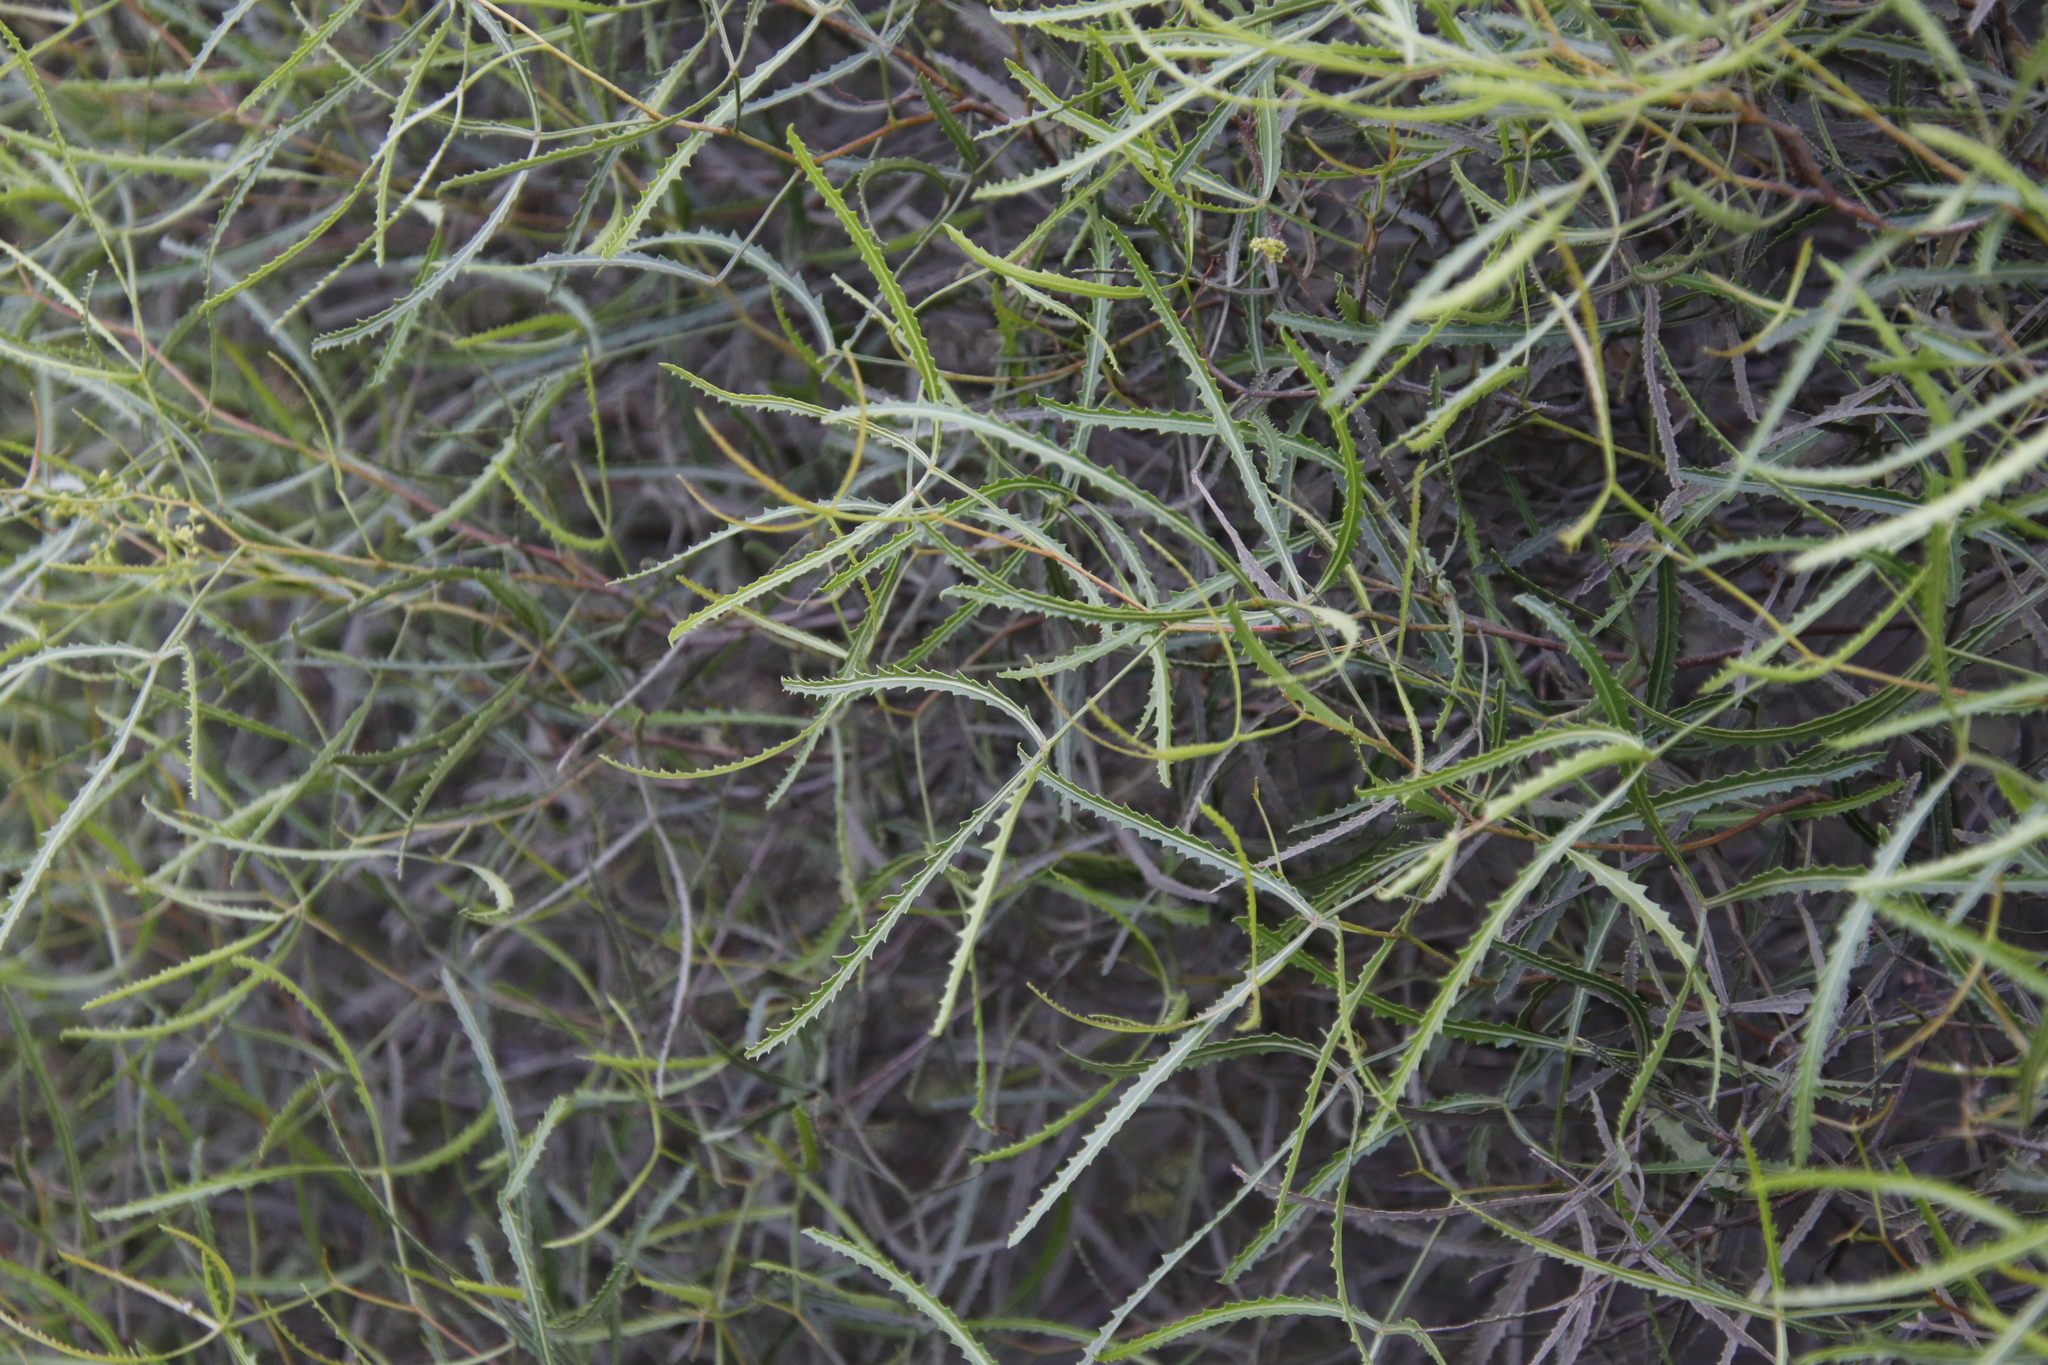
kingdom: Plantae
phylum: Tracheophyta
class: Magnoliopsida
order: Sapindales
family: Anacardiaceae
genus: Searsia
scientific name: Searsia erosa
